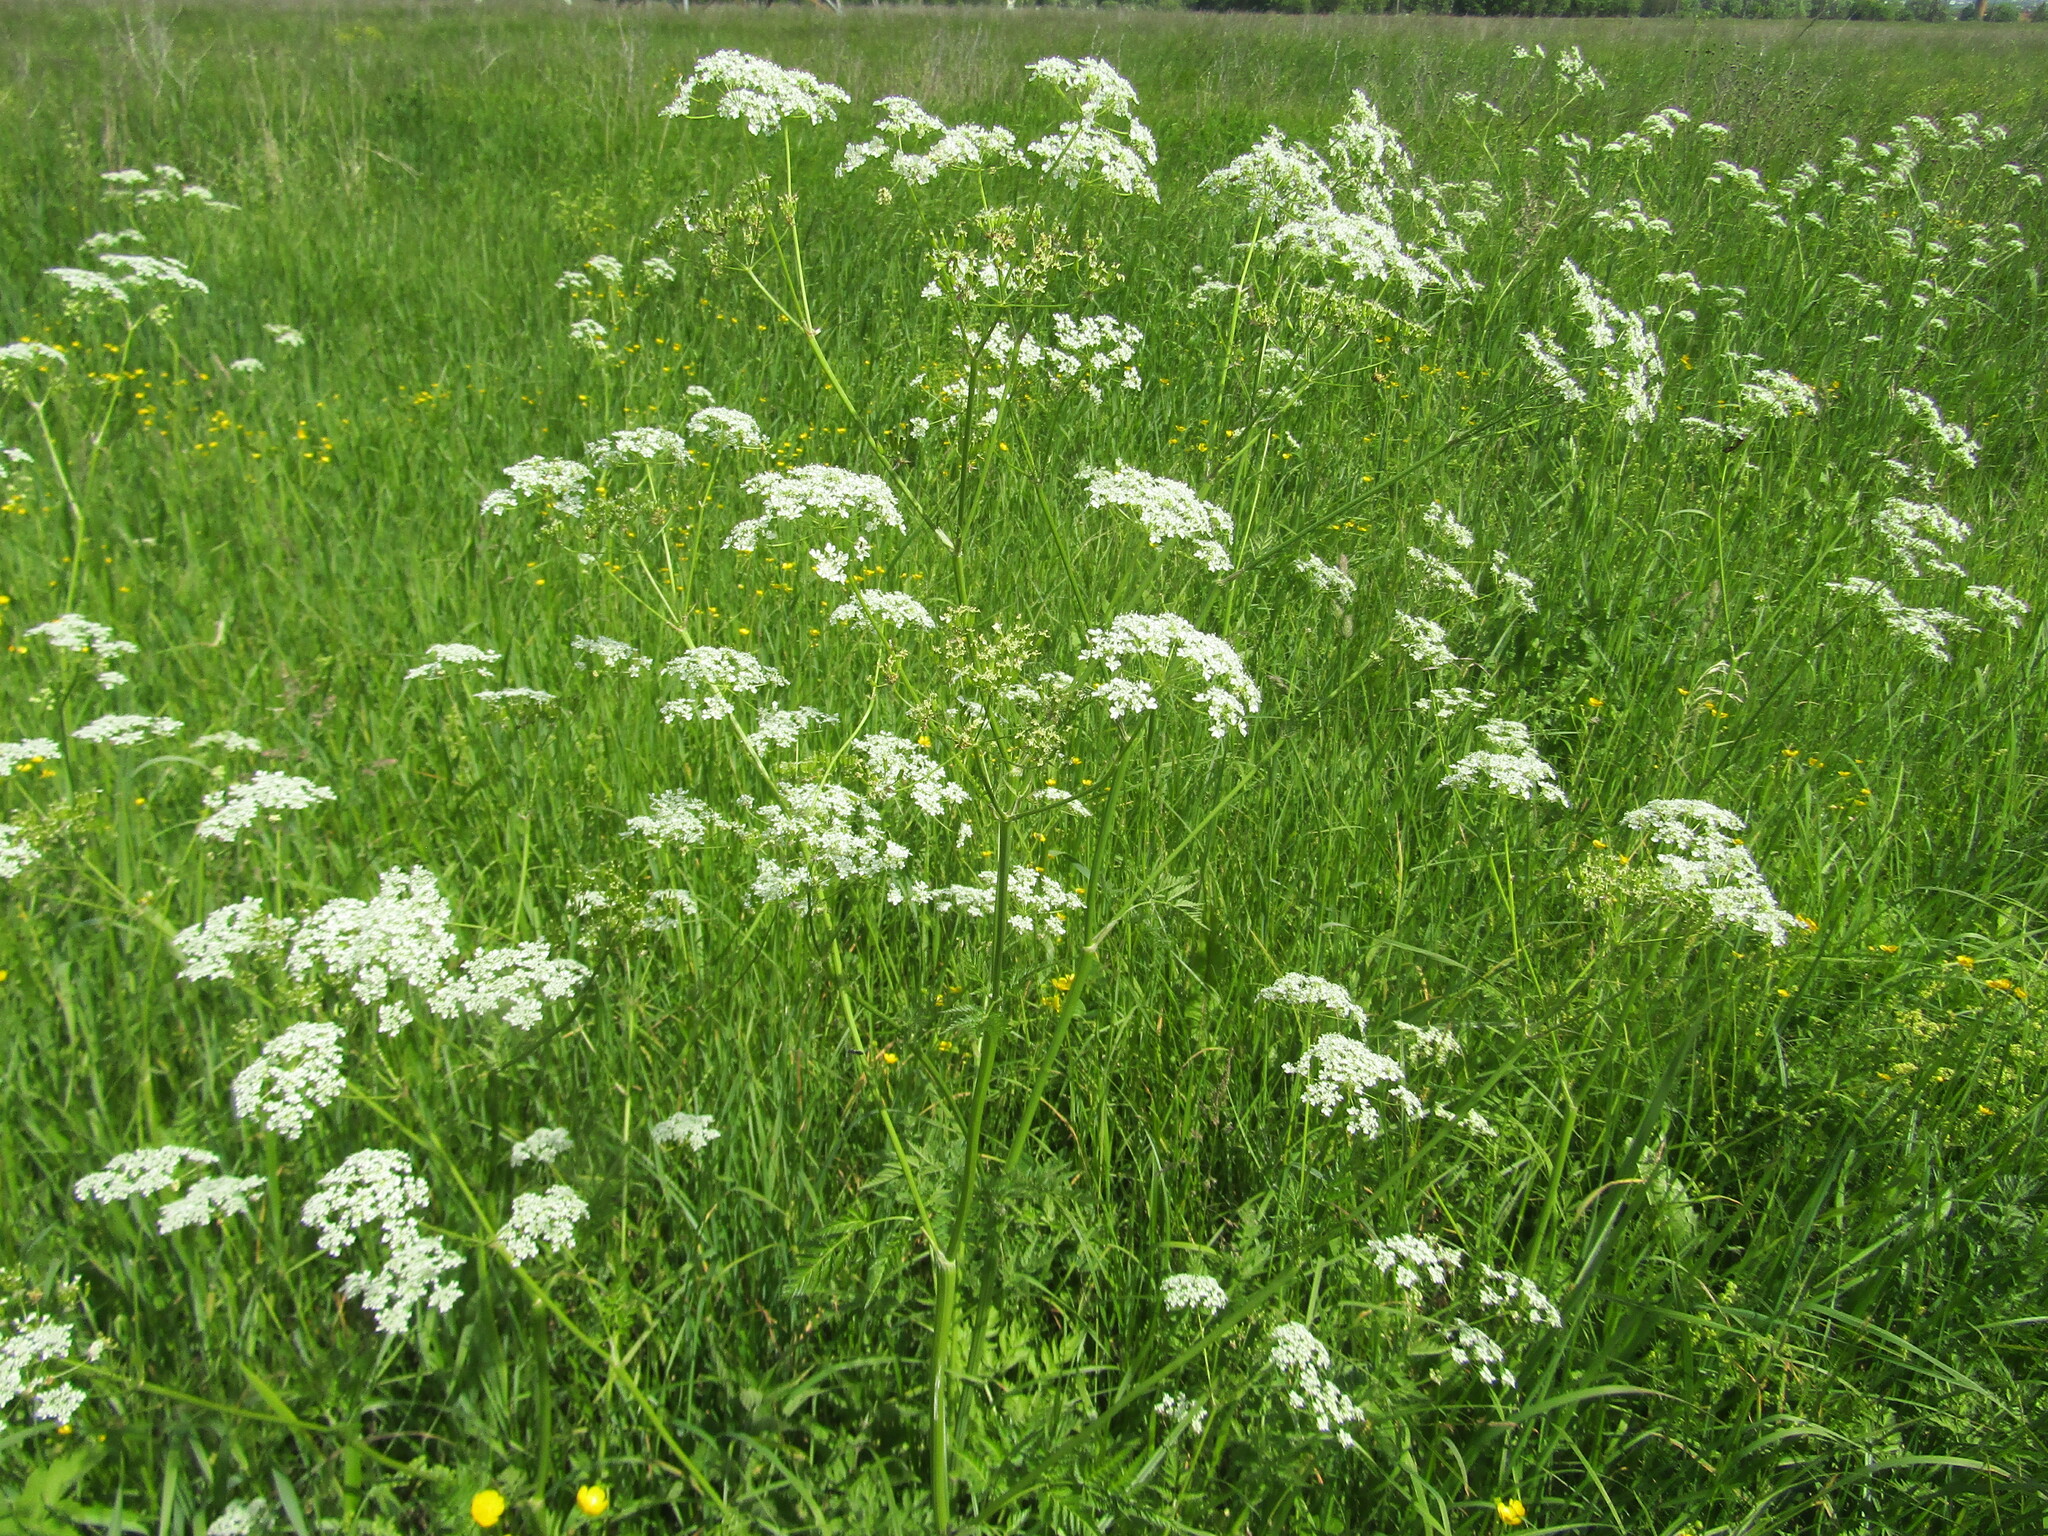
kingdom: Plantae
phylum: Tracheophyta
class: Magnoliopsida
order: Apiales
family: Apiaceae
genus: Anthriscus
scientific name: Anthriscus sylvestris
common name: Cow parsley
